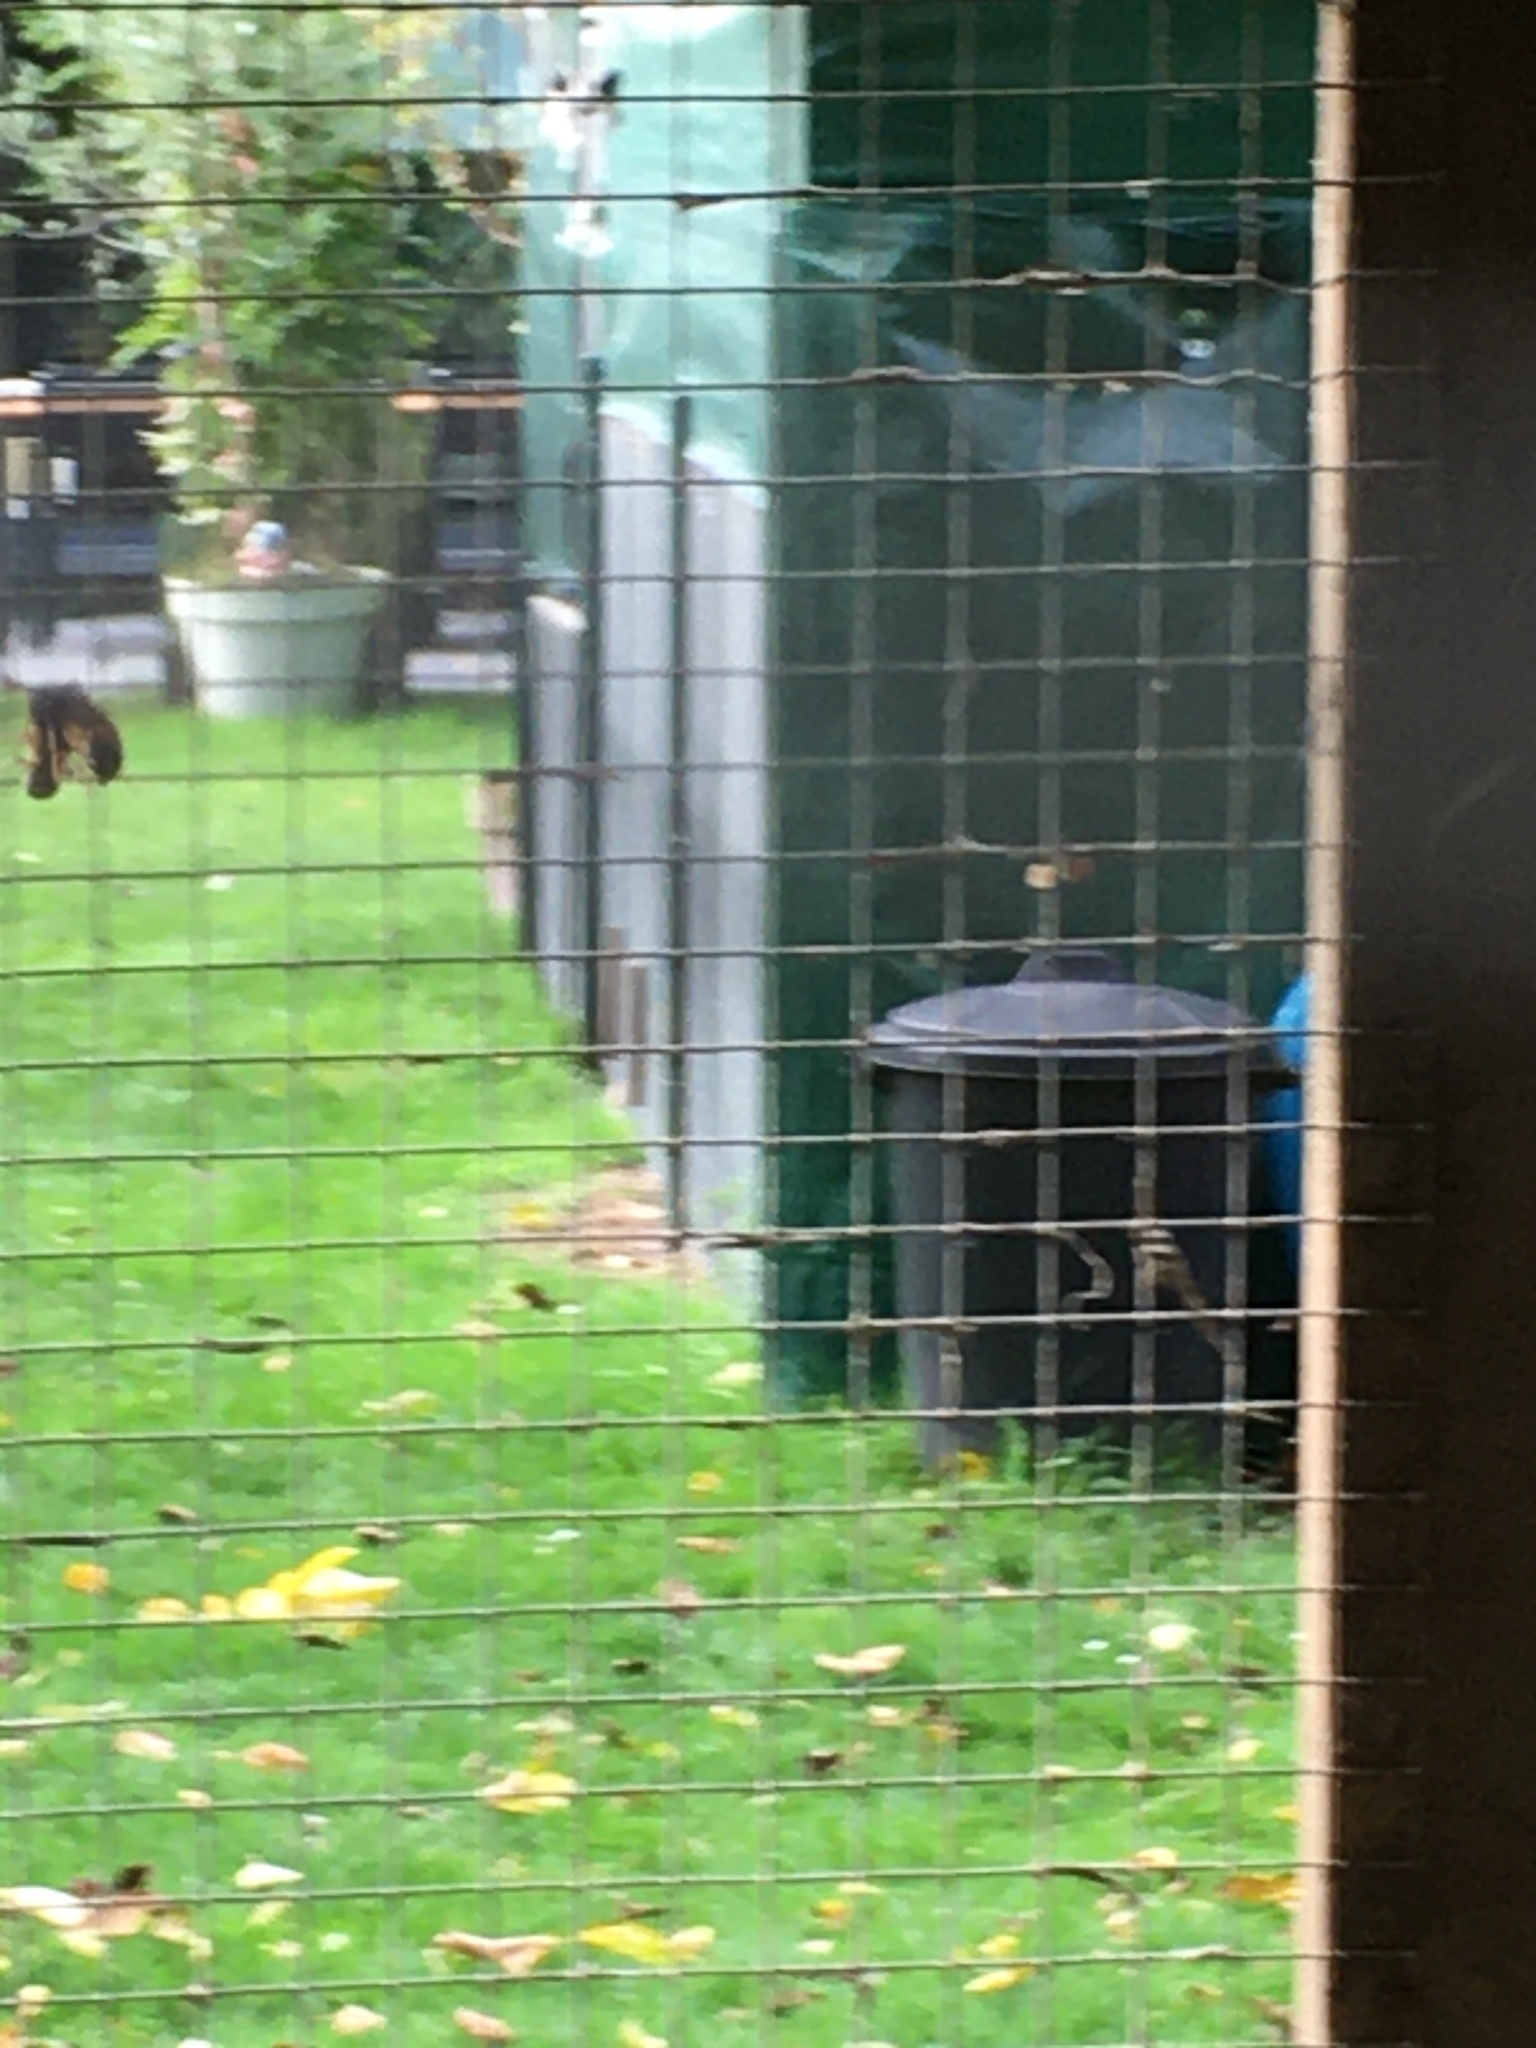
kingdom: Animalia
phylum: Arthropoda
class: Insecta
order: Hymenoptera
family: Vespidae
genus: Vespa
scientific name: Vespa velutina
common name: Asian hornet
